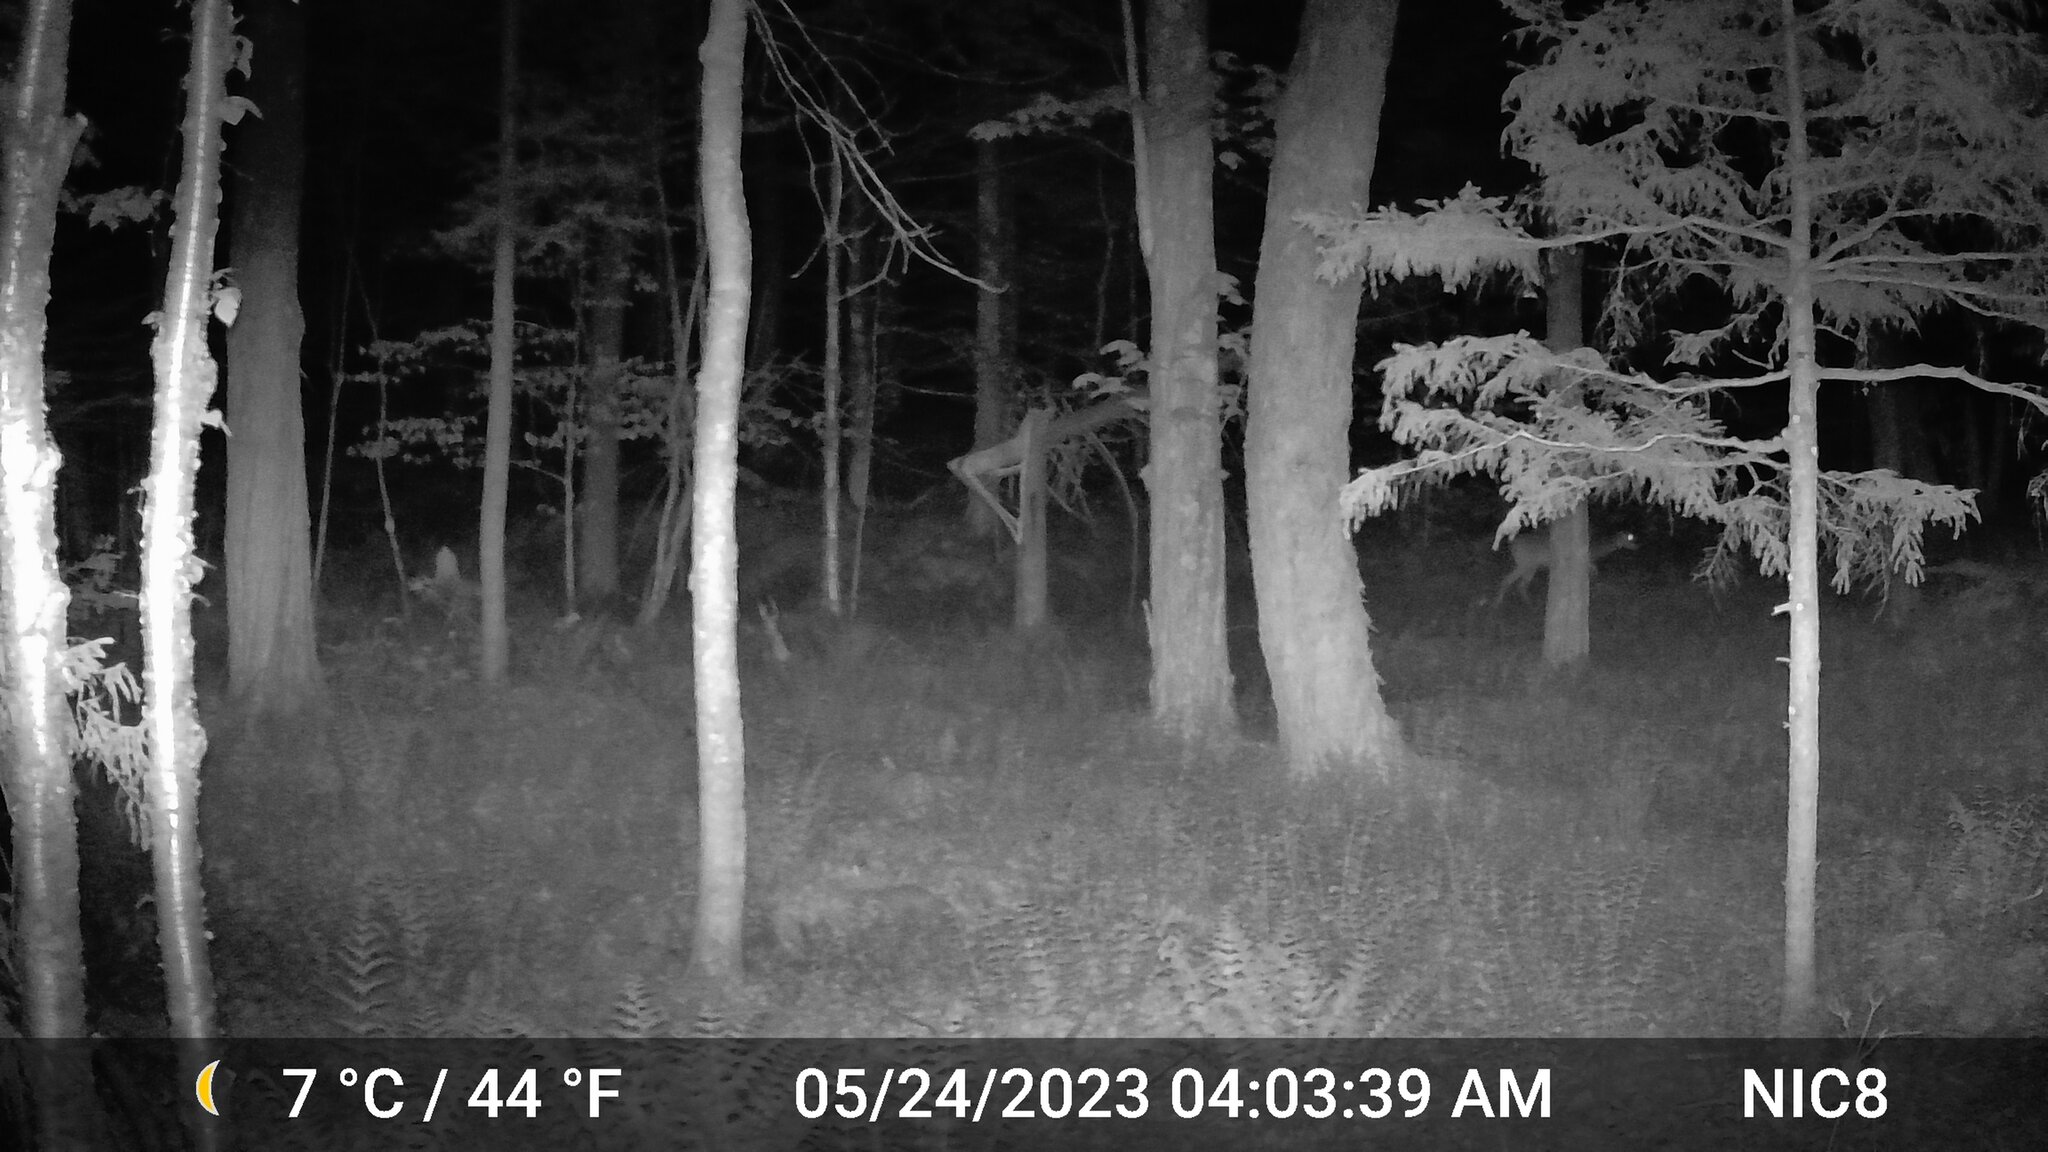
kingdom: Animalia
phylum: Chordata
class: Mammalia
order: Artiodactyla
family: Cervidae
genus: Odocoileus
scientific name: Odocoileus virginianus
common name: White-tailed deer
